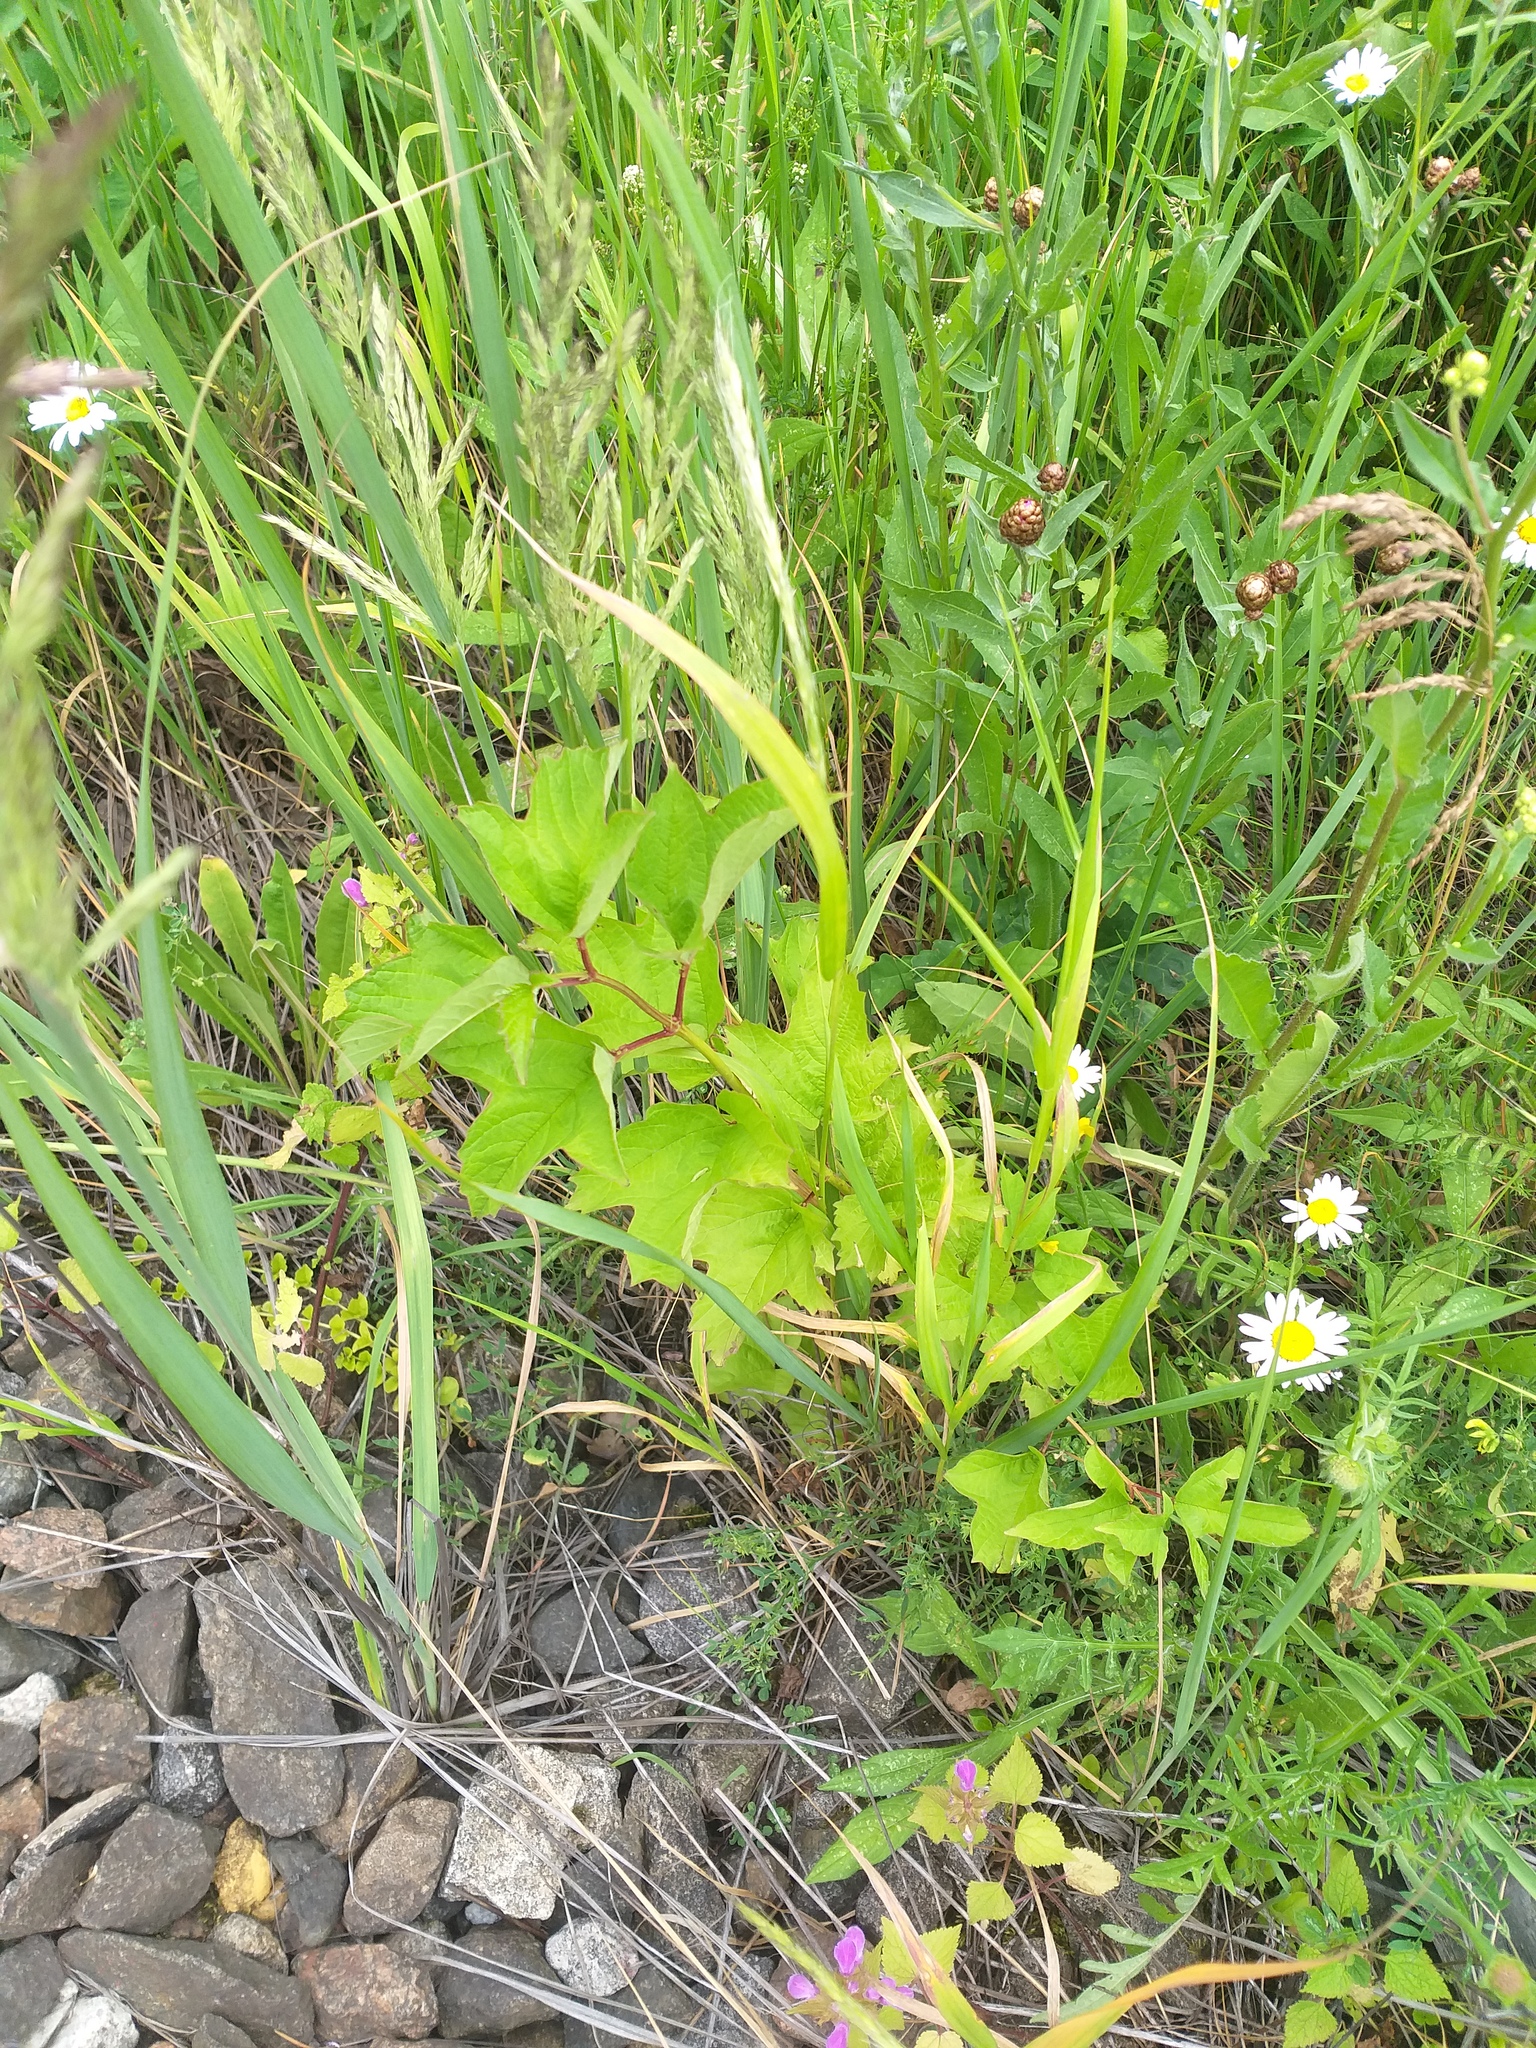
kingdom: Plantae
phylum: Tracheophyta
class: Magnoliopsida
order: Dipsacales
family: Viburnaceae
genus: Viburnum
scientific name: Viburnum opulus
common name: Guelder-rose
